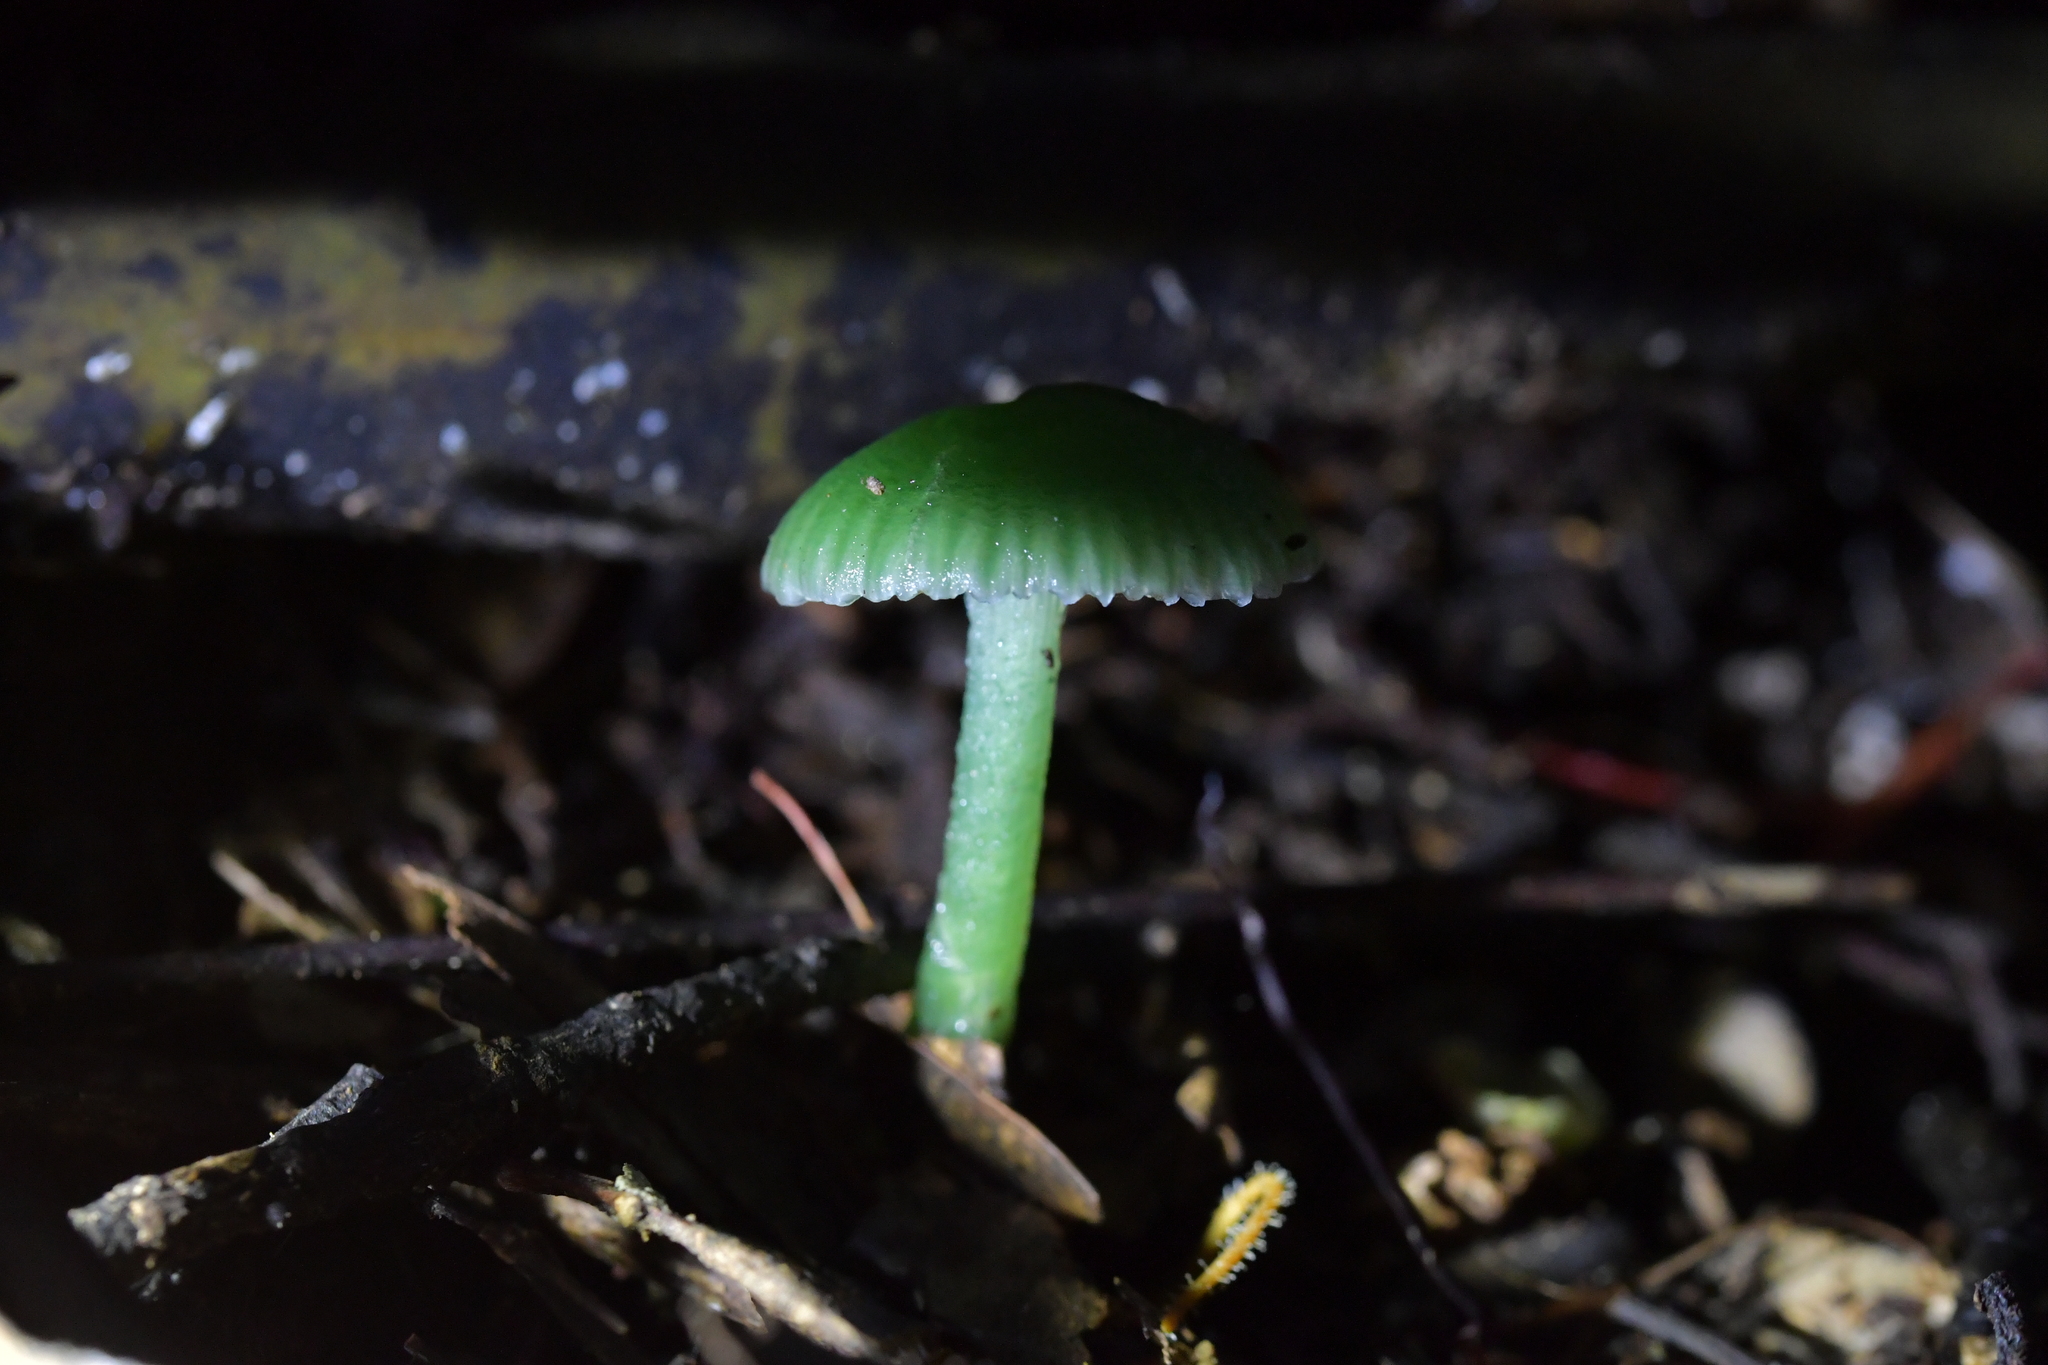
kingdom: Fungi
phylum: Basidiomycota
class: Agaricomycetes
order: Agaricales
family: Hygrophoraceae
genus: Gliophorus
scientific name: Gliophorus graminicolor
